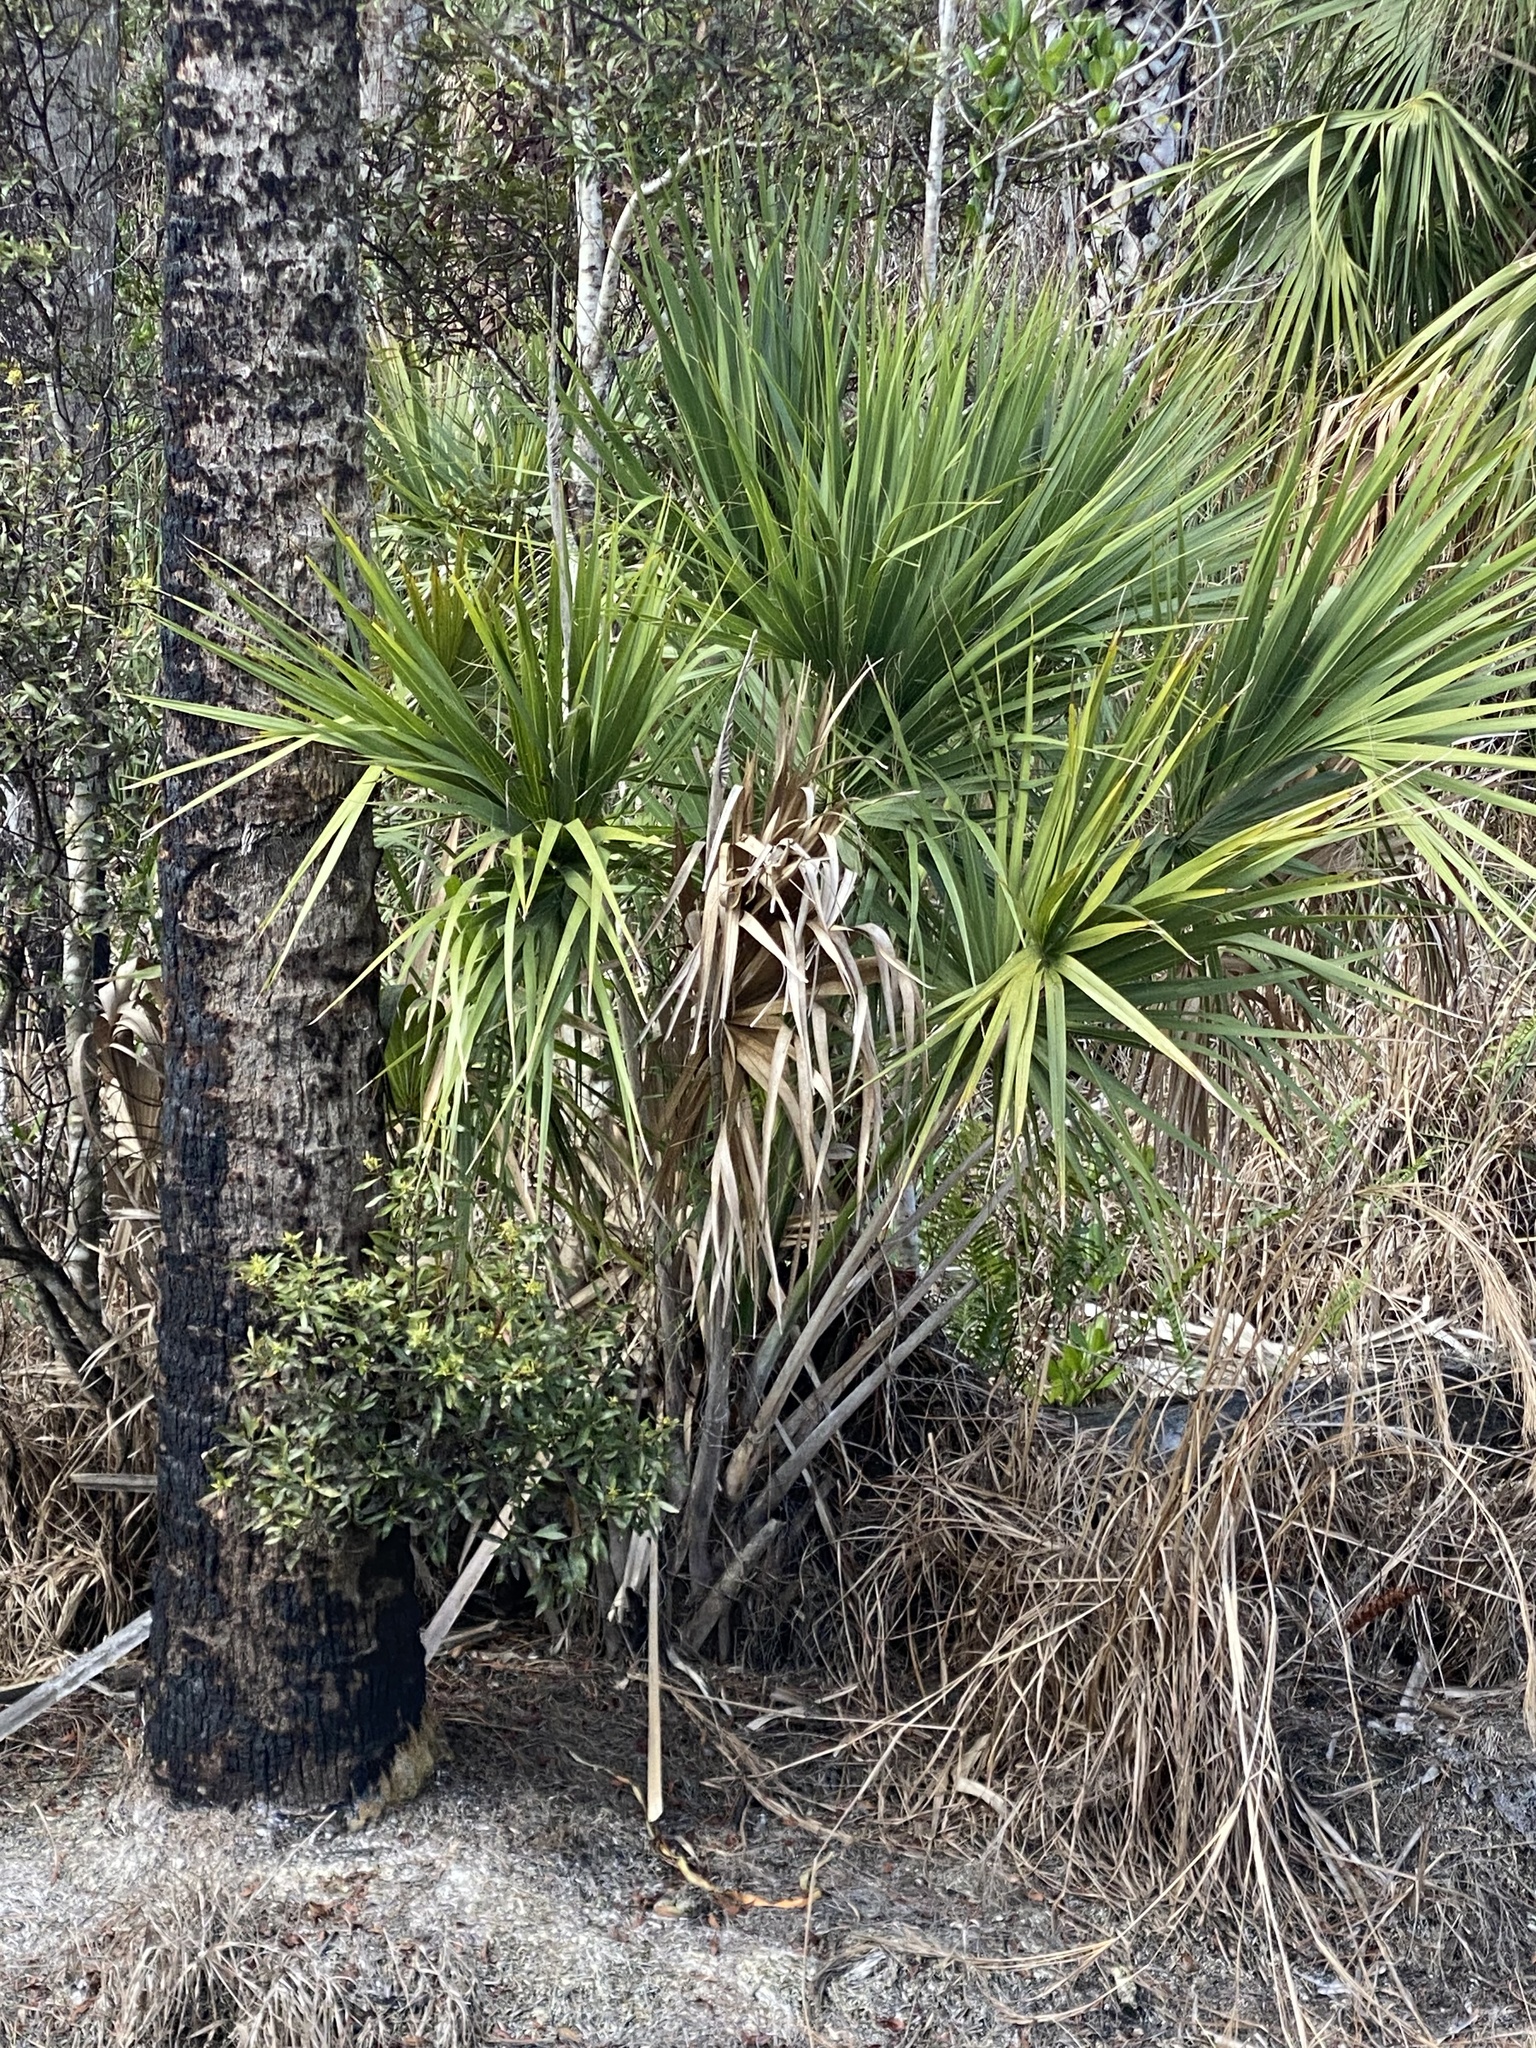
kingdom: Plantae
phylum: Tracheophyta
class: Liliopsida
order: Arecales
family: Arecaceae
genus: Sabal
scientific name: Sabal palmetto
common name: Blue palmetto
